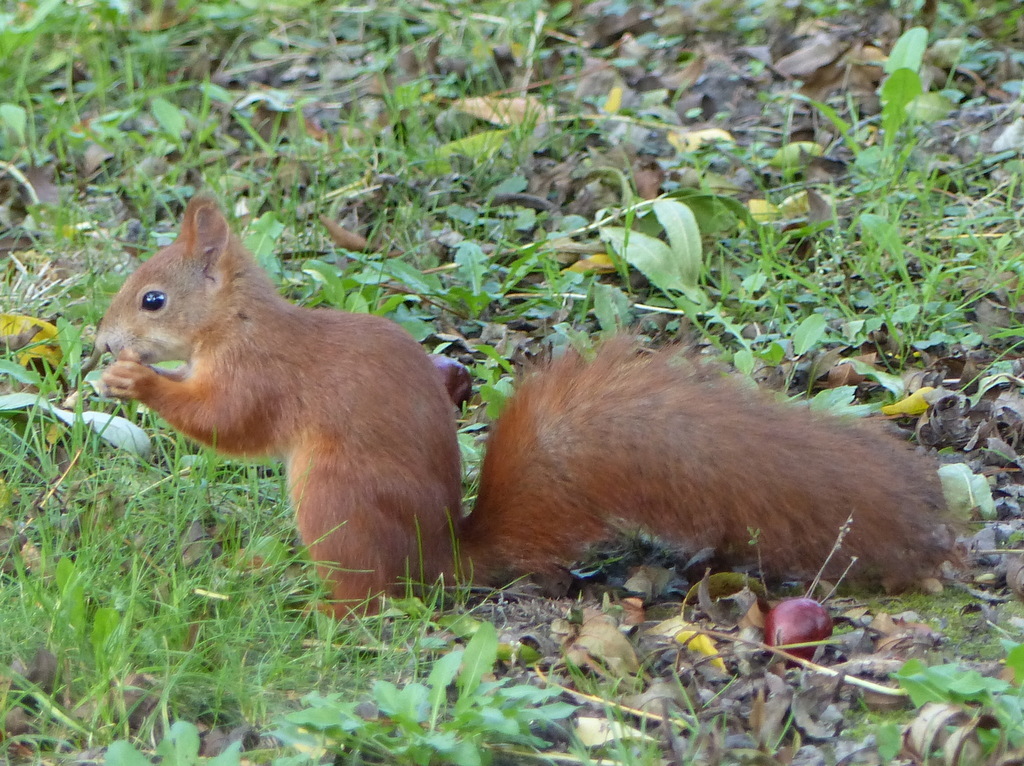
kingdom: Animalia
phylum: Chordata
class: Mammalia
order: Rodentia
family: Sciuridae
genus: Sciurus
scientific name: Sciurus vulgaris
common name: Eurasian red squirrel
